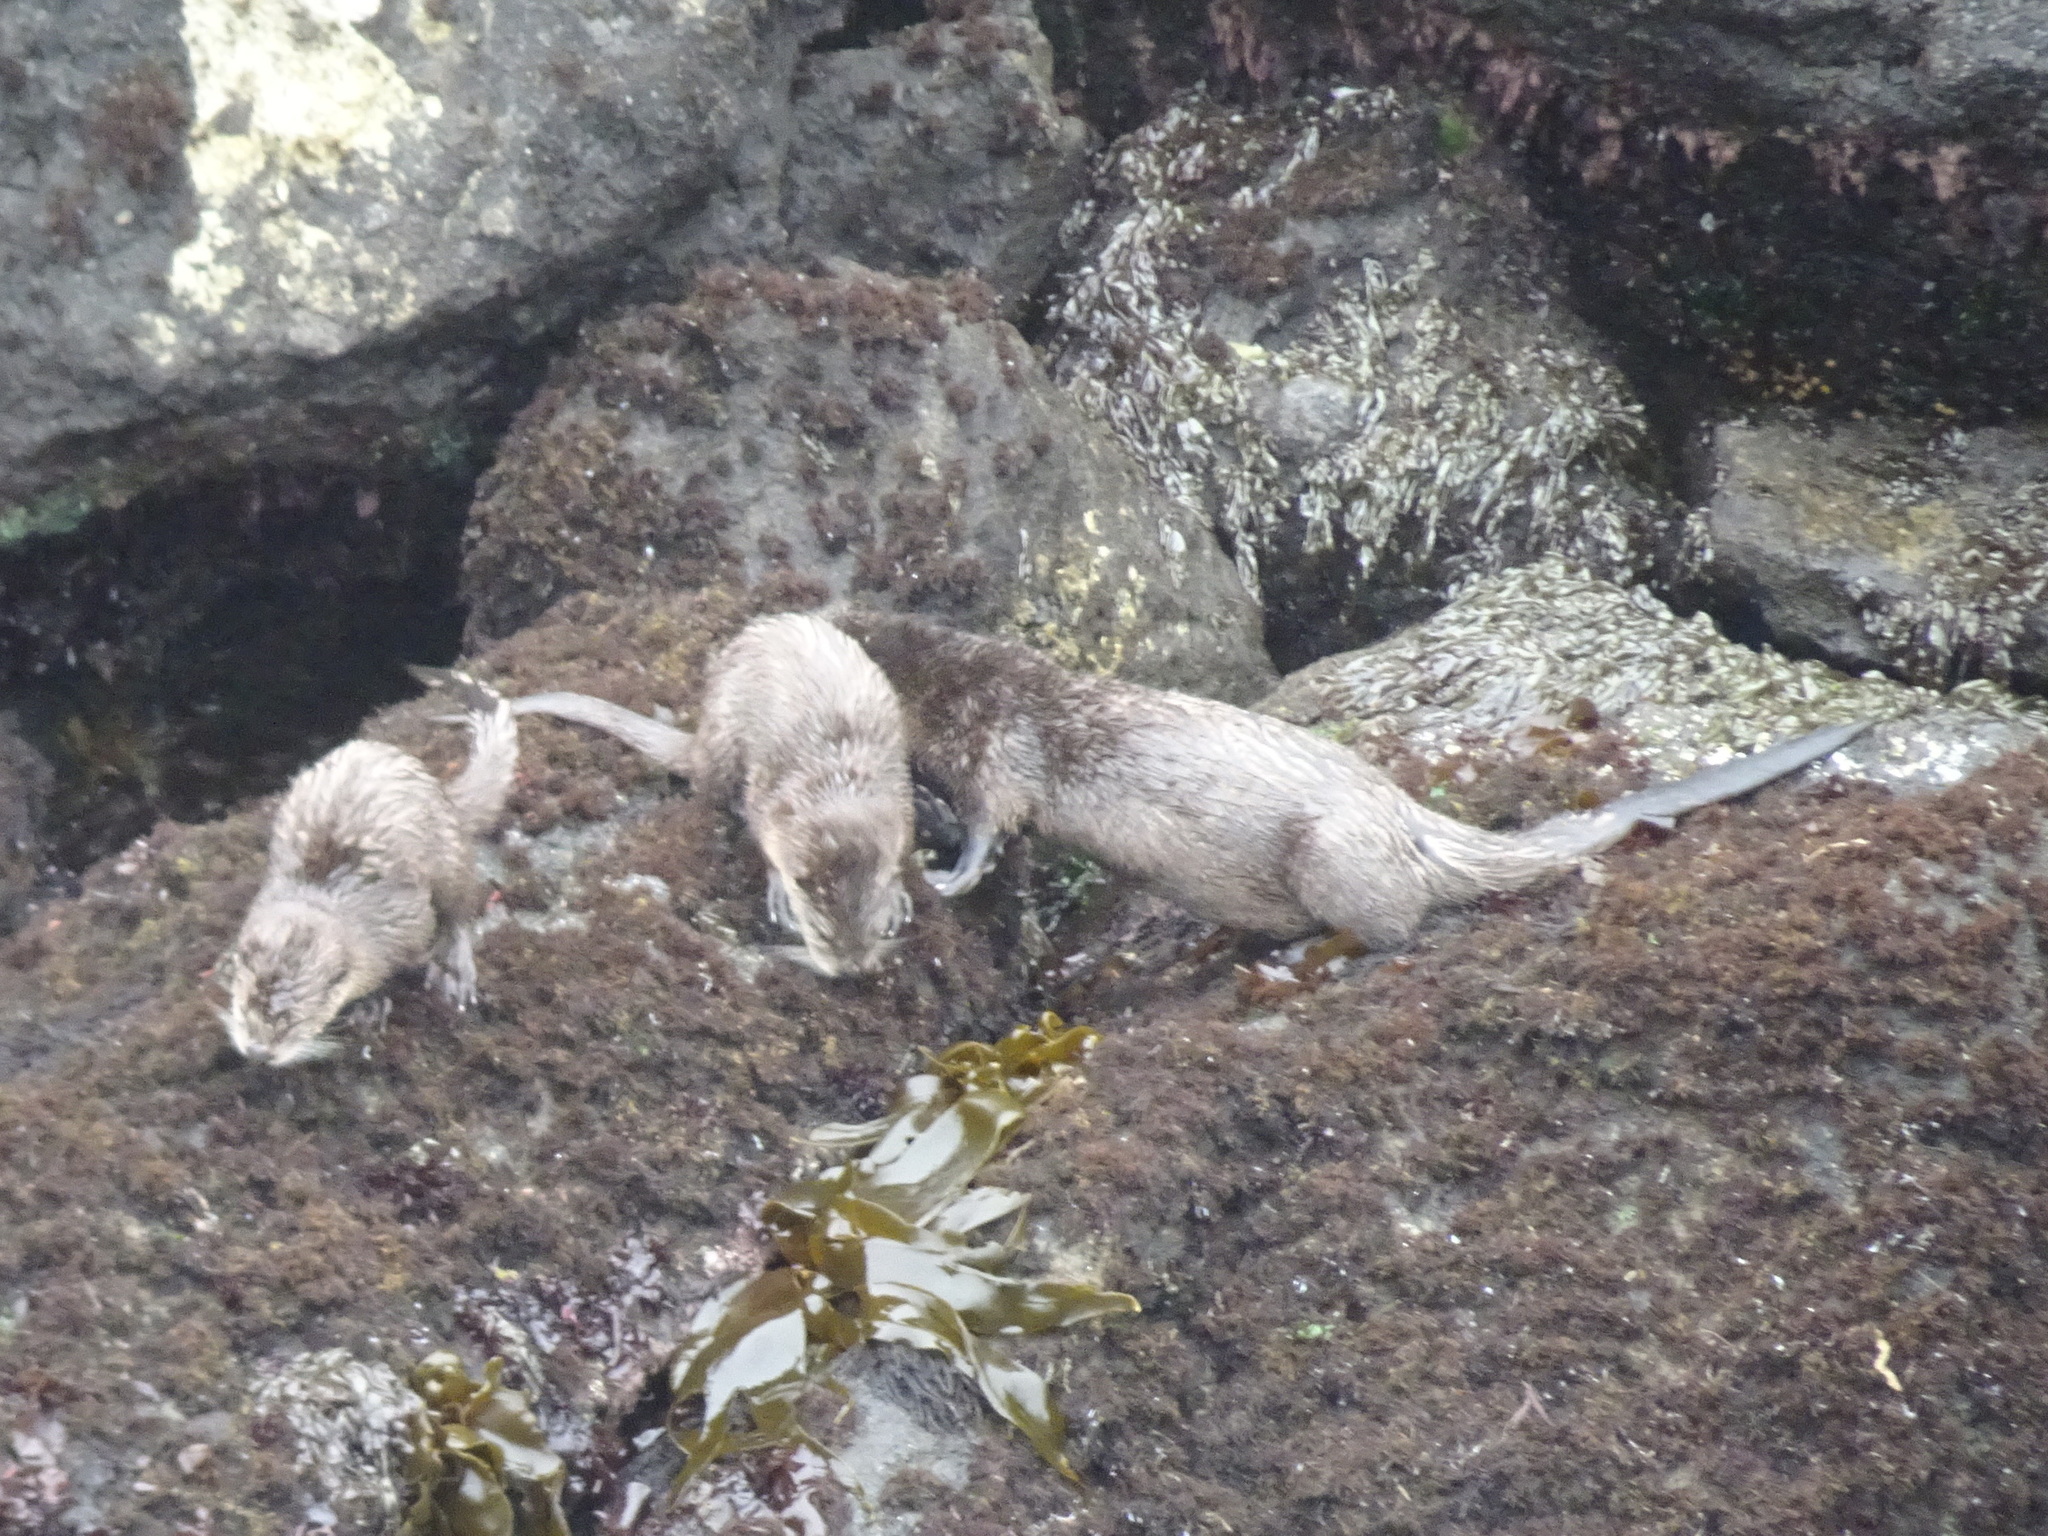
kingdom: Animalia
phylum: Chordata
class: Mammalia
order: Carnivora
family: Mustelidae
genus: Lontra
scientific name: Lontra canadensis
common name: North american river otter
